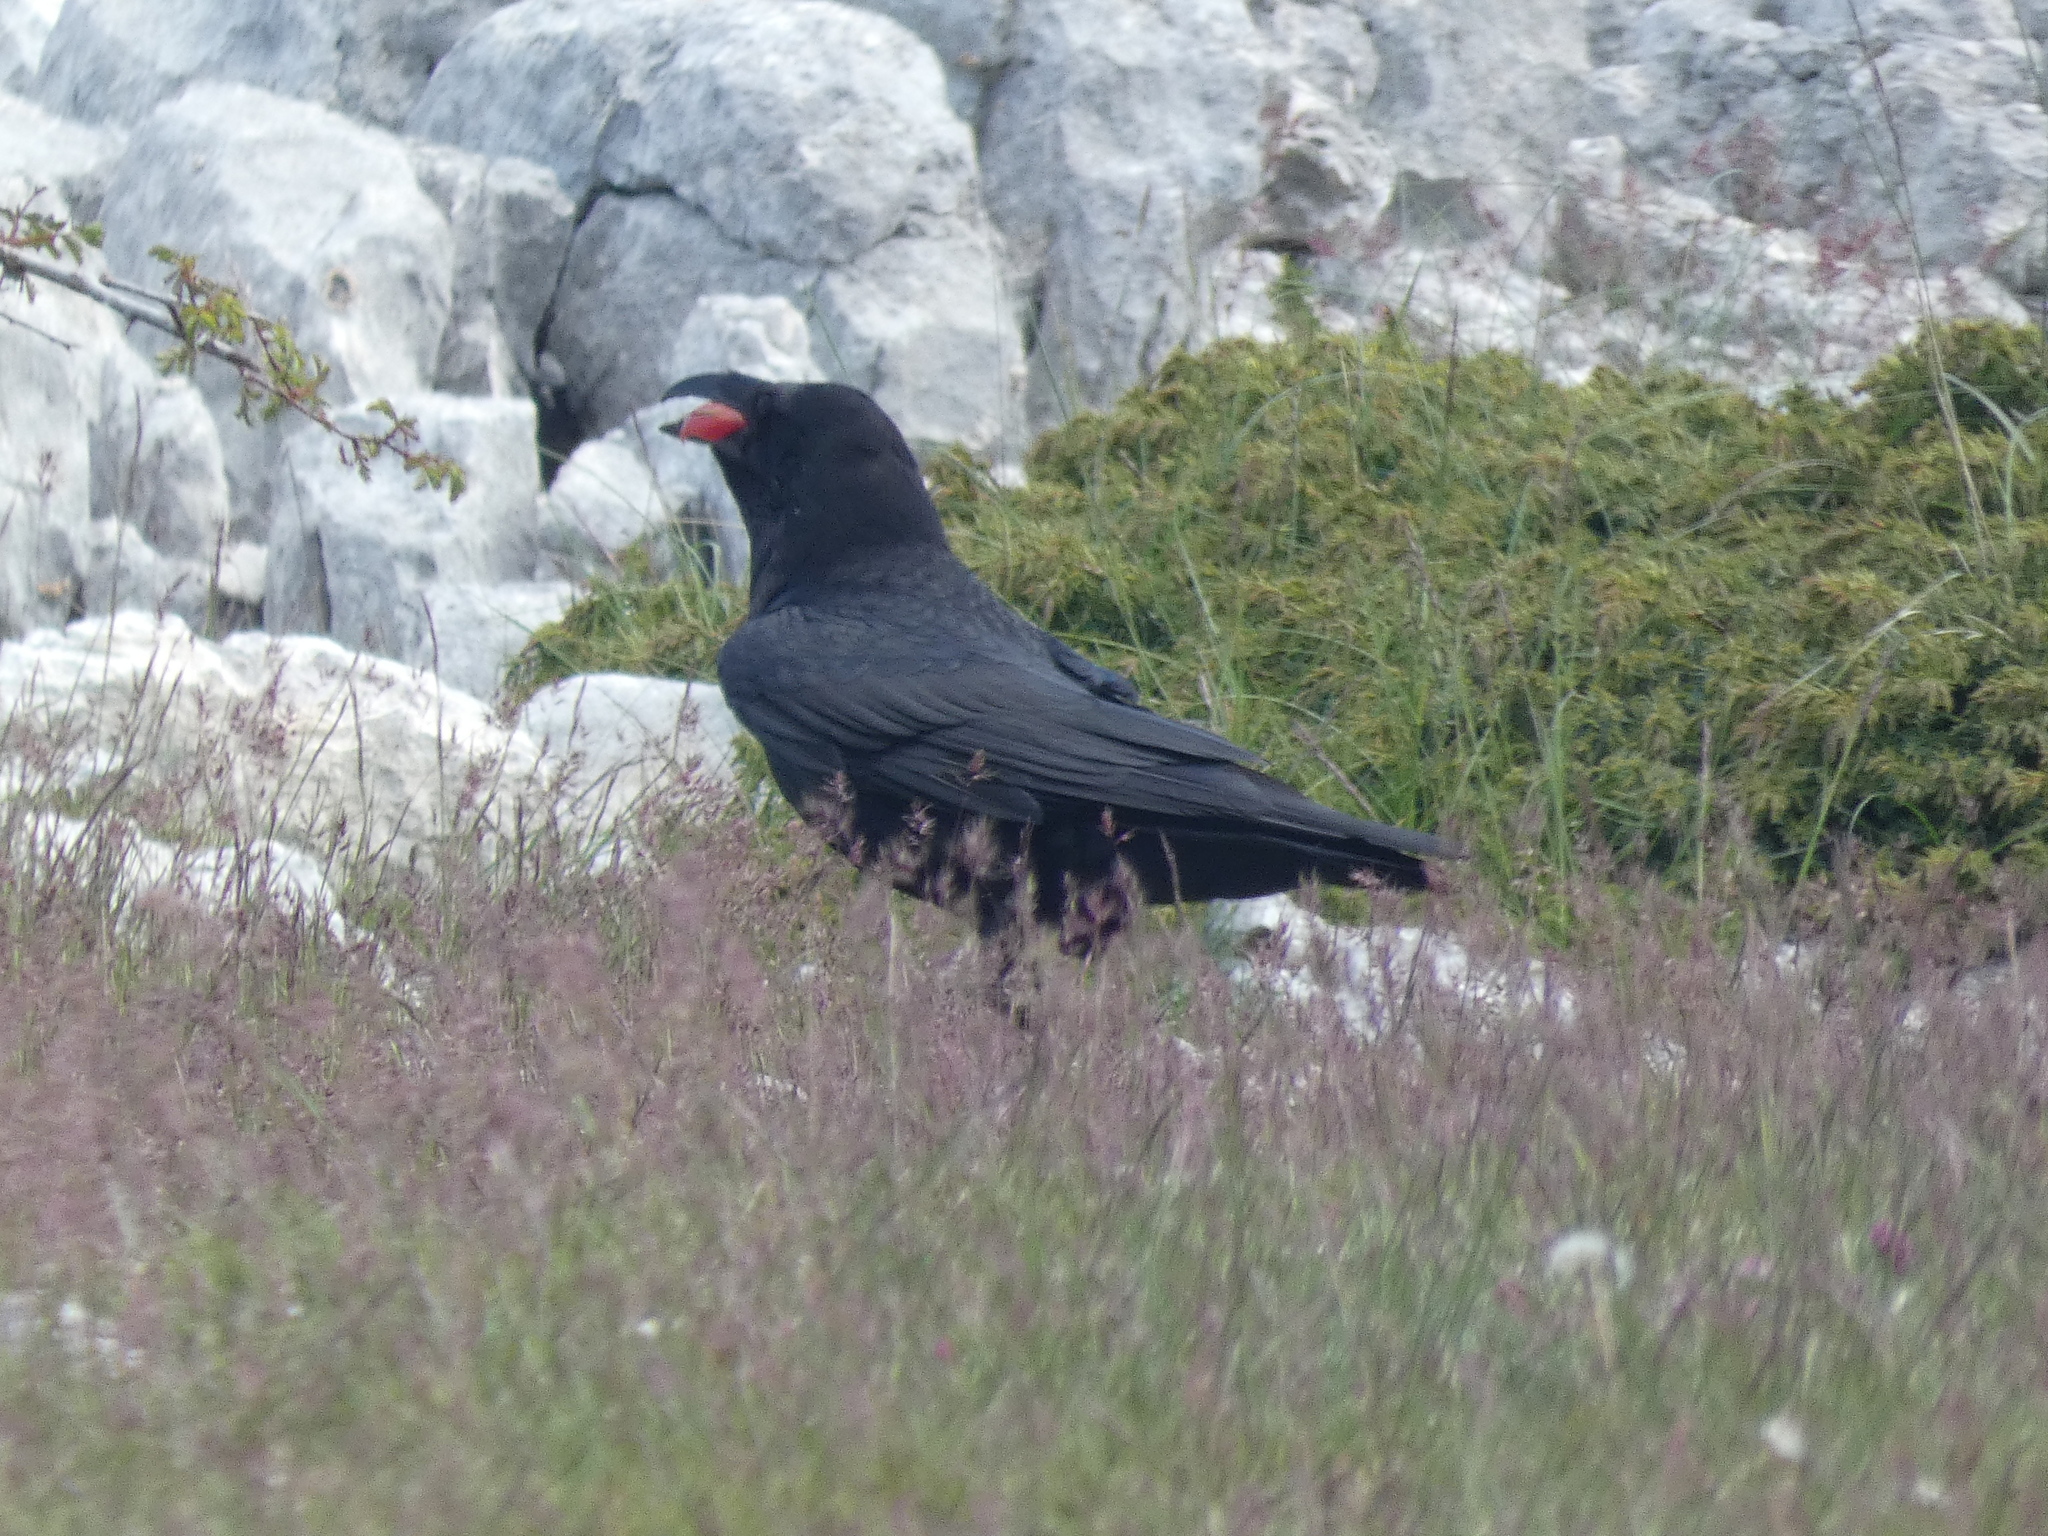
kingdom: Animalia
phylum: Chordata
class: Aves
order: Passeriformes
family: Corvidae
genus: Corvus
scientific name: Corvus corax
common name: Common raven
